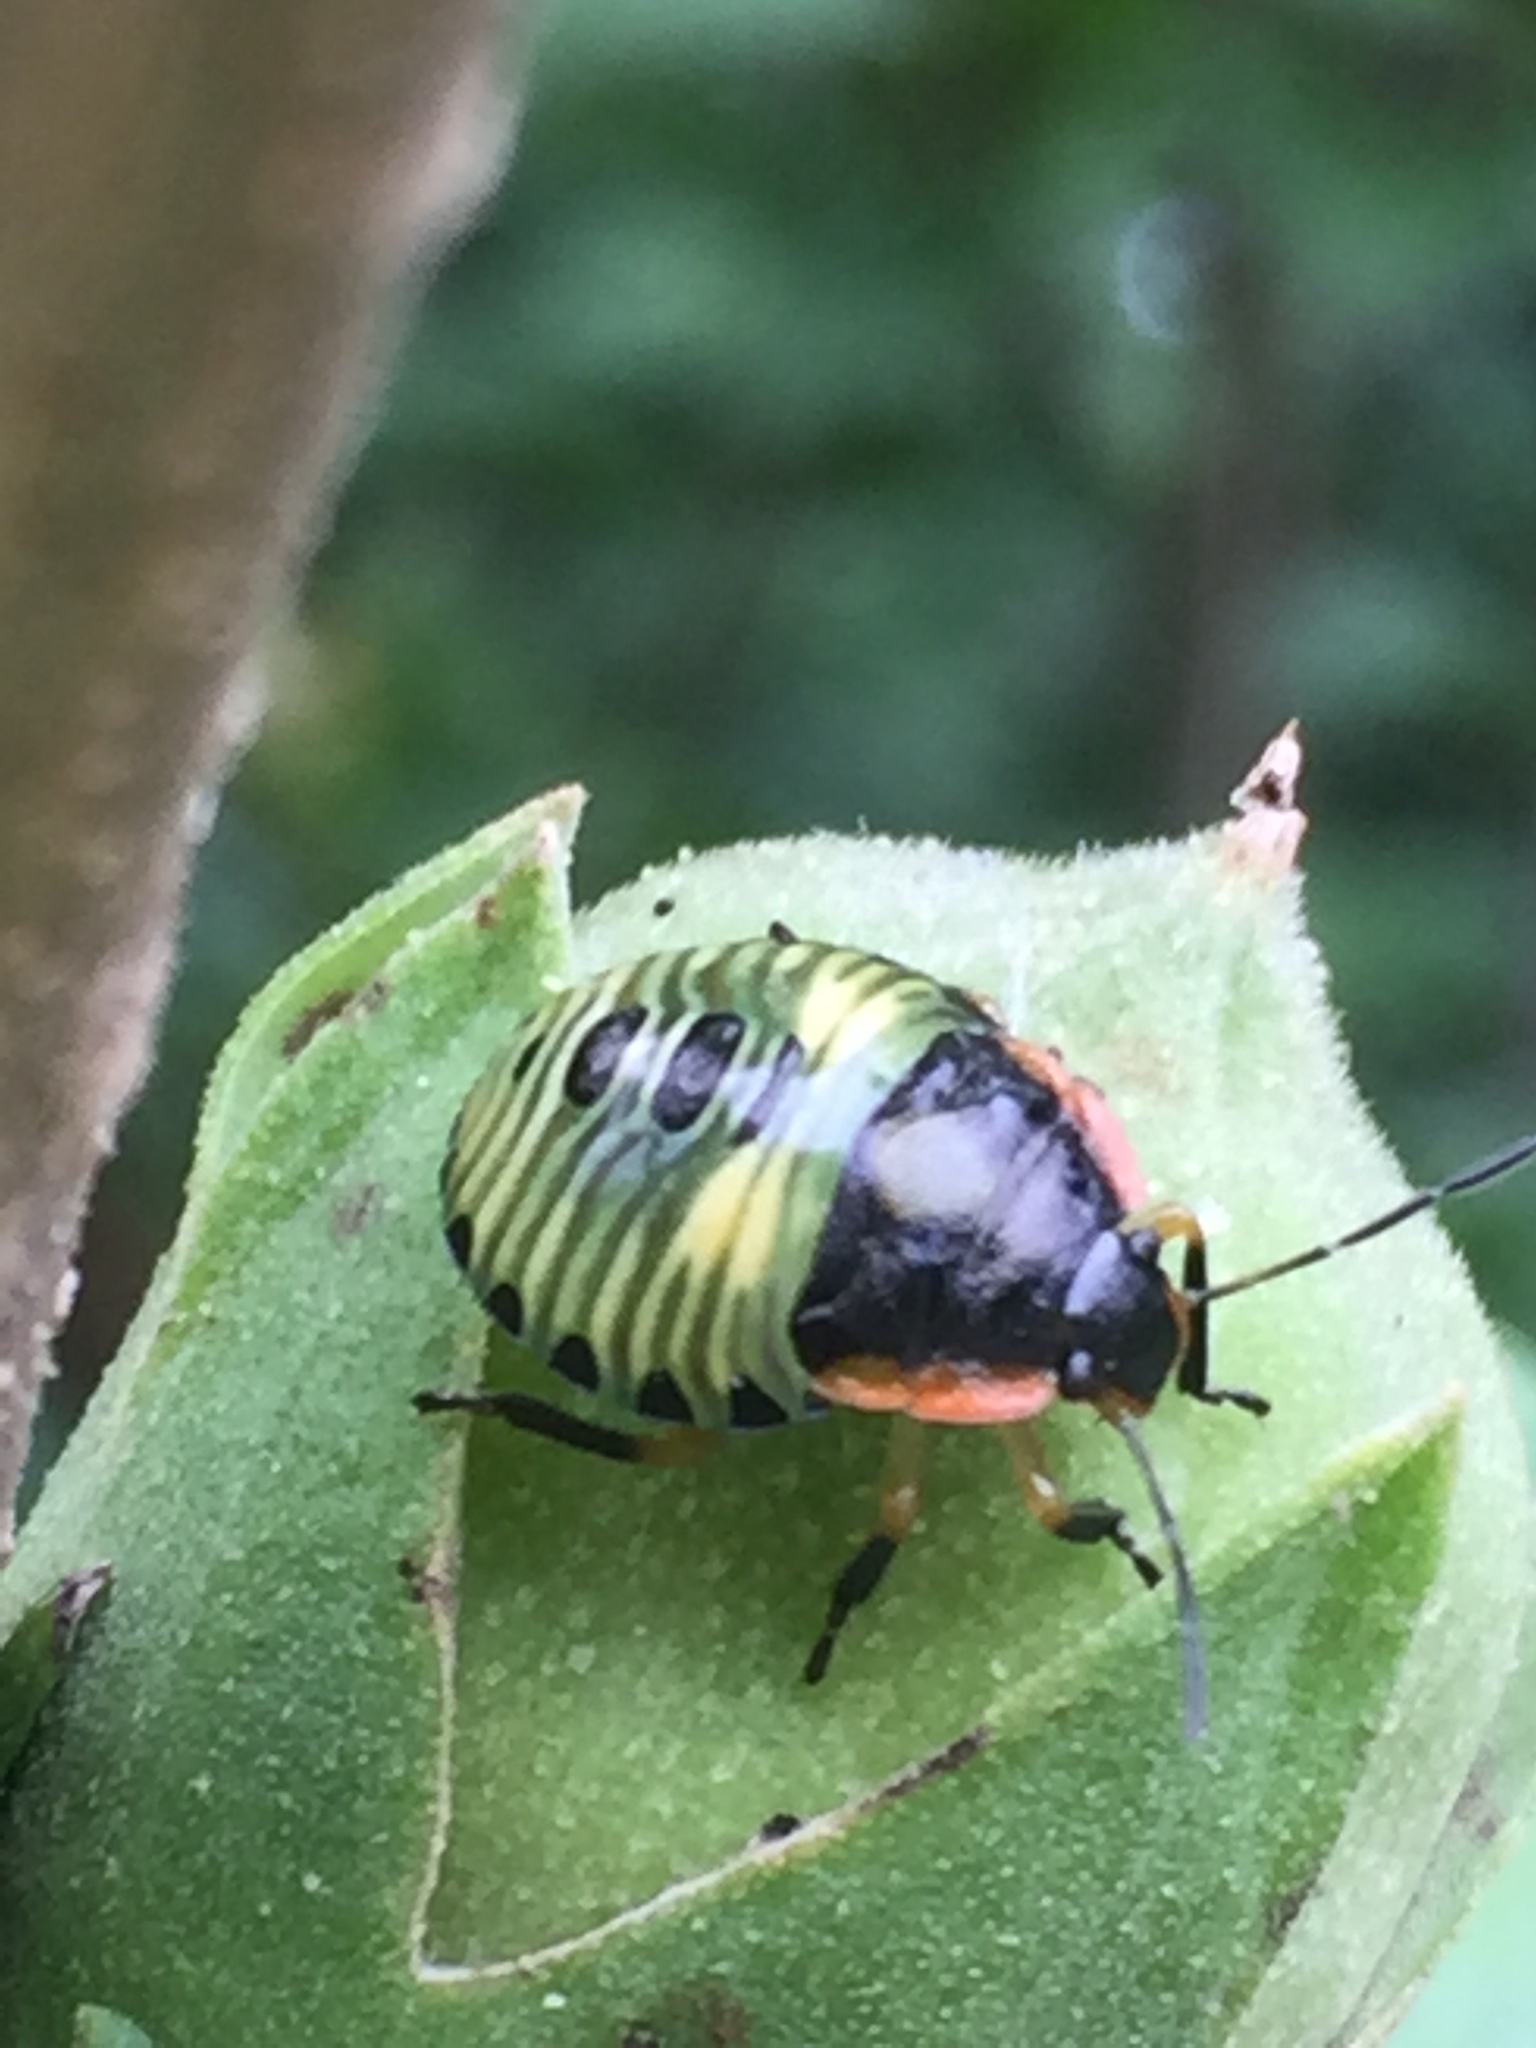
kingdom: Animalia
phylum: Arthropoda
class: Insecta
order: Hemiptera
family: Pentatomidae
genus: Chinavia
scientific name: Chinavia hilaris
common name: Green stink bug
